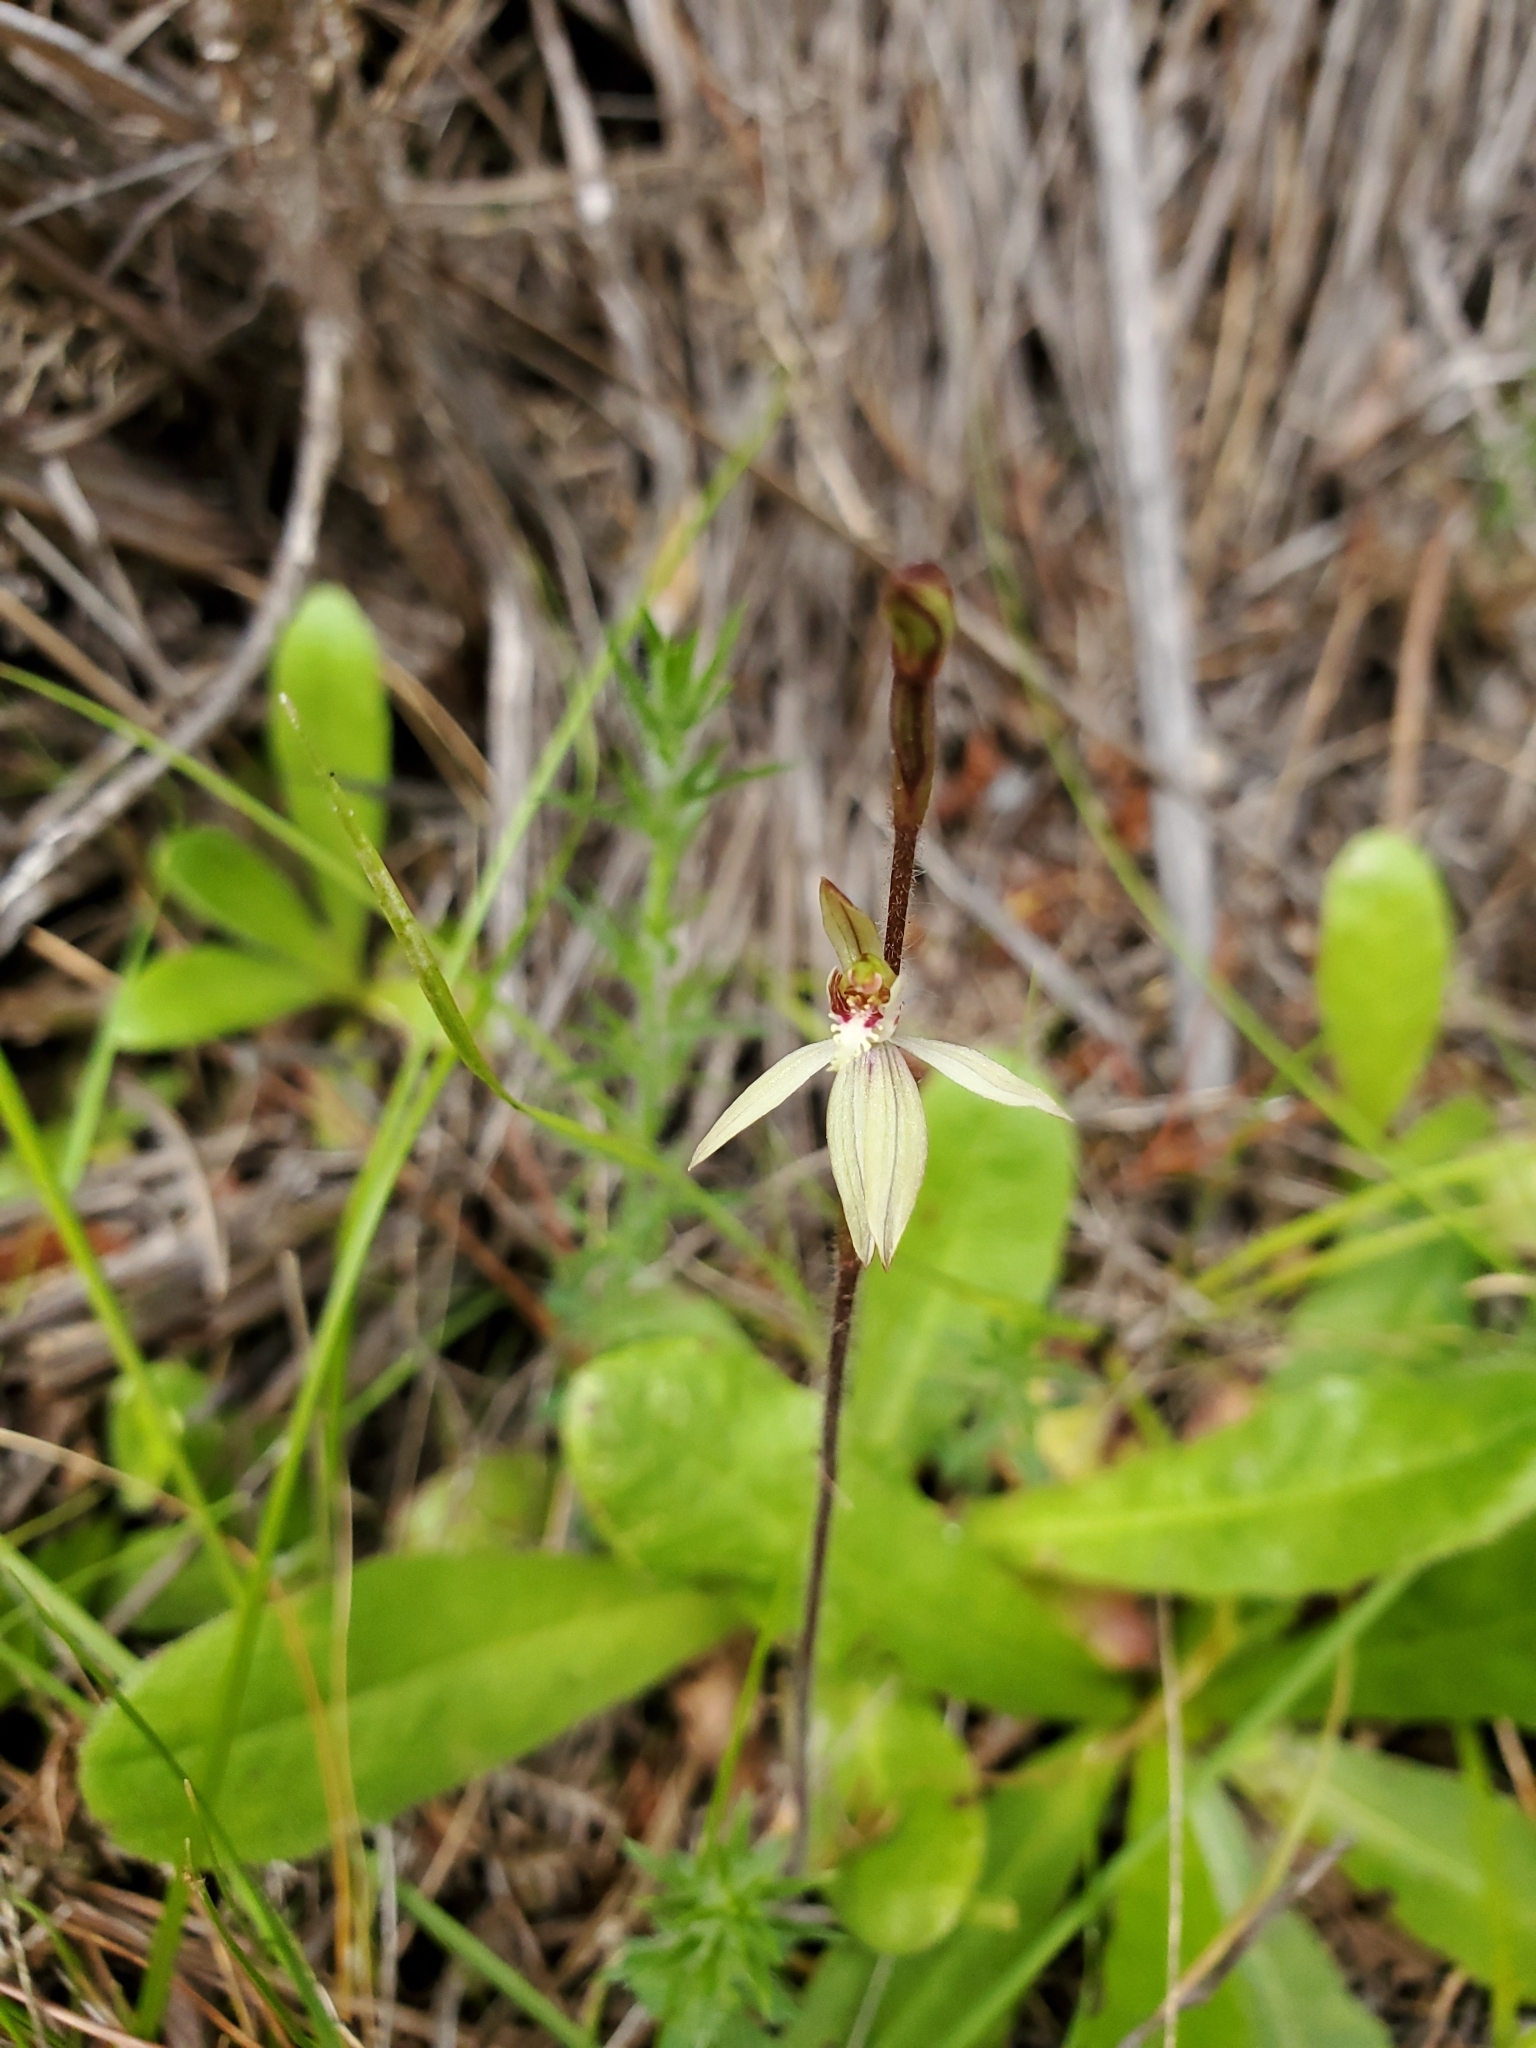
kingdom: Plantae
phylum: Tracheophyta
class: Liliopsida
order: Asparagales
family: Orchidaceae
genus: Caladenia
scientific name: Caladenia chlorostyla
